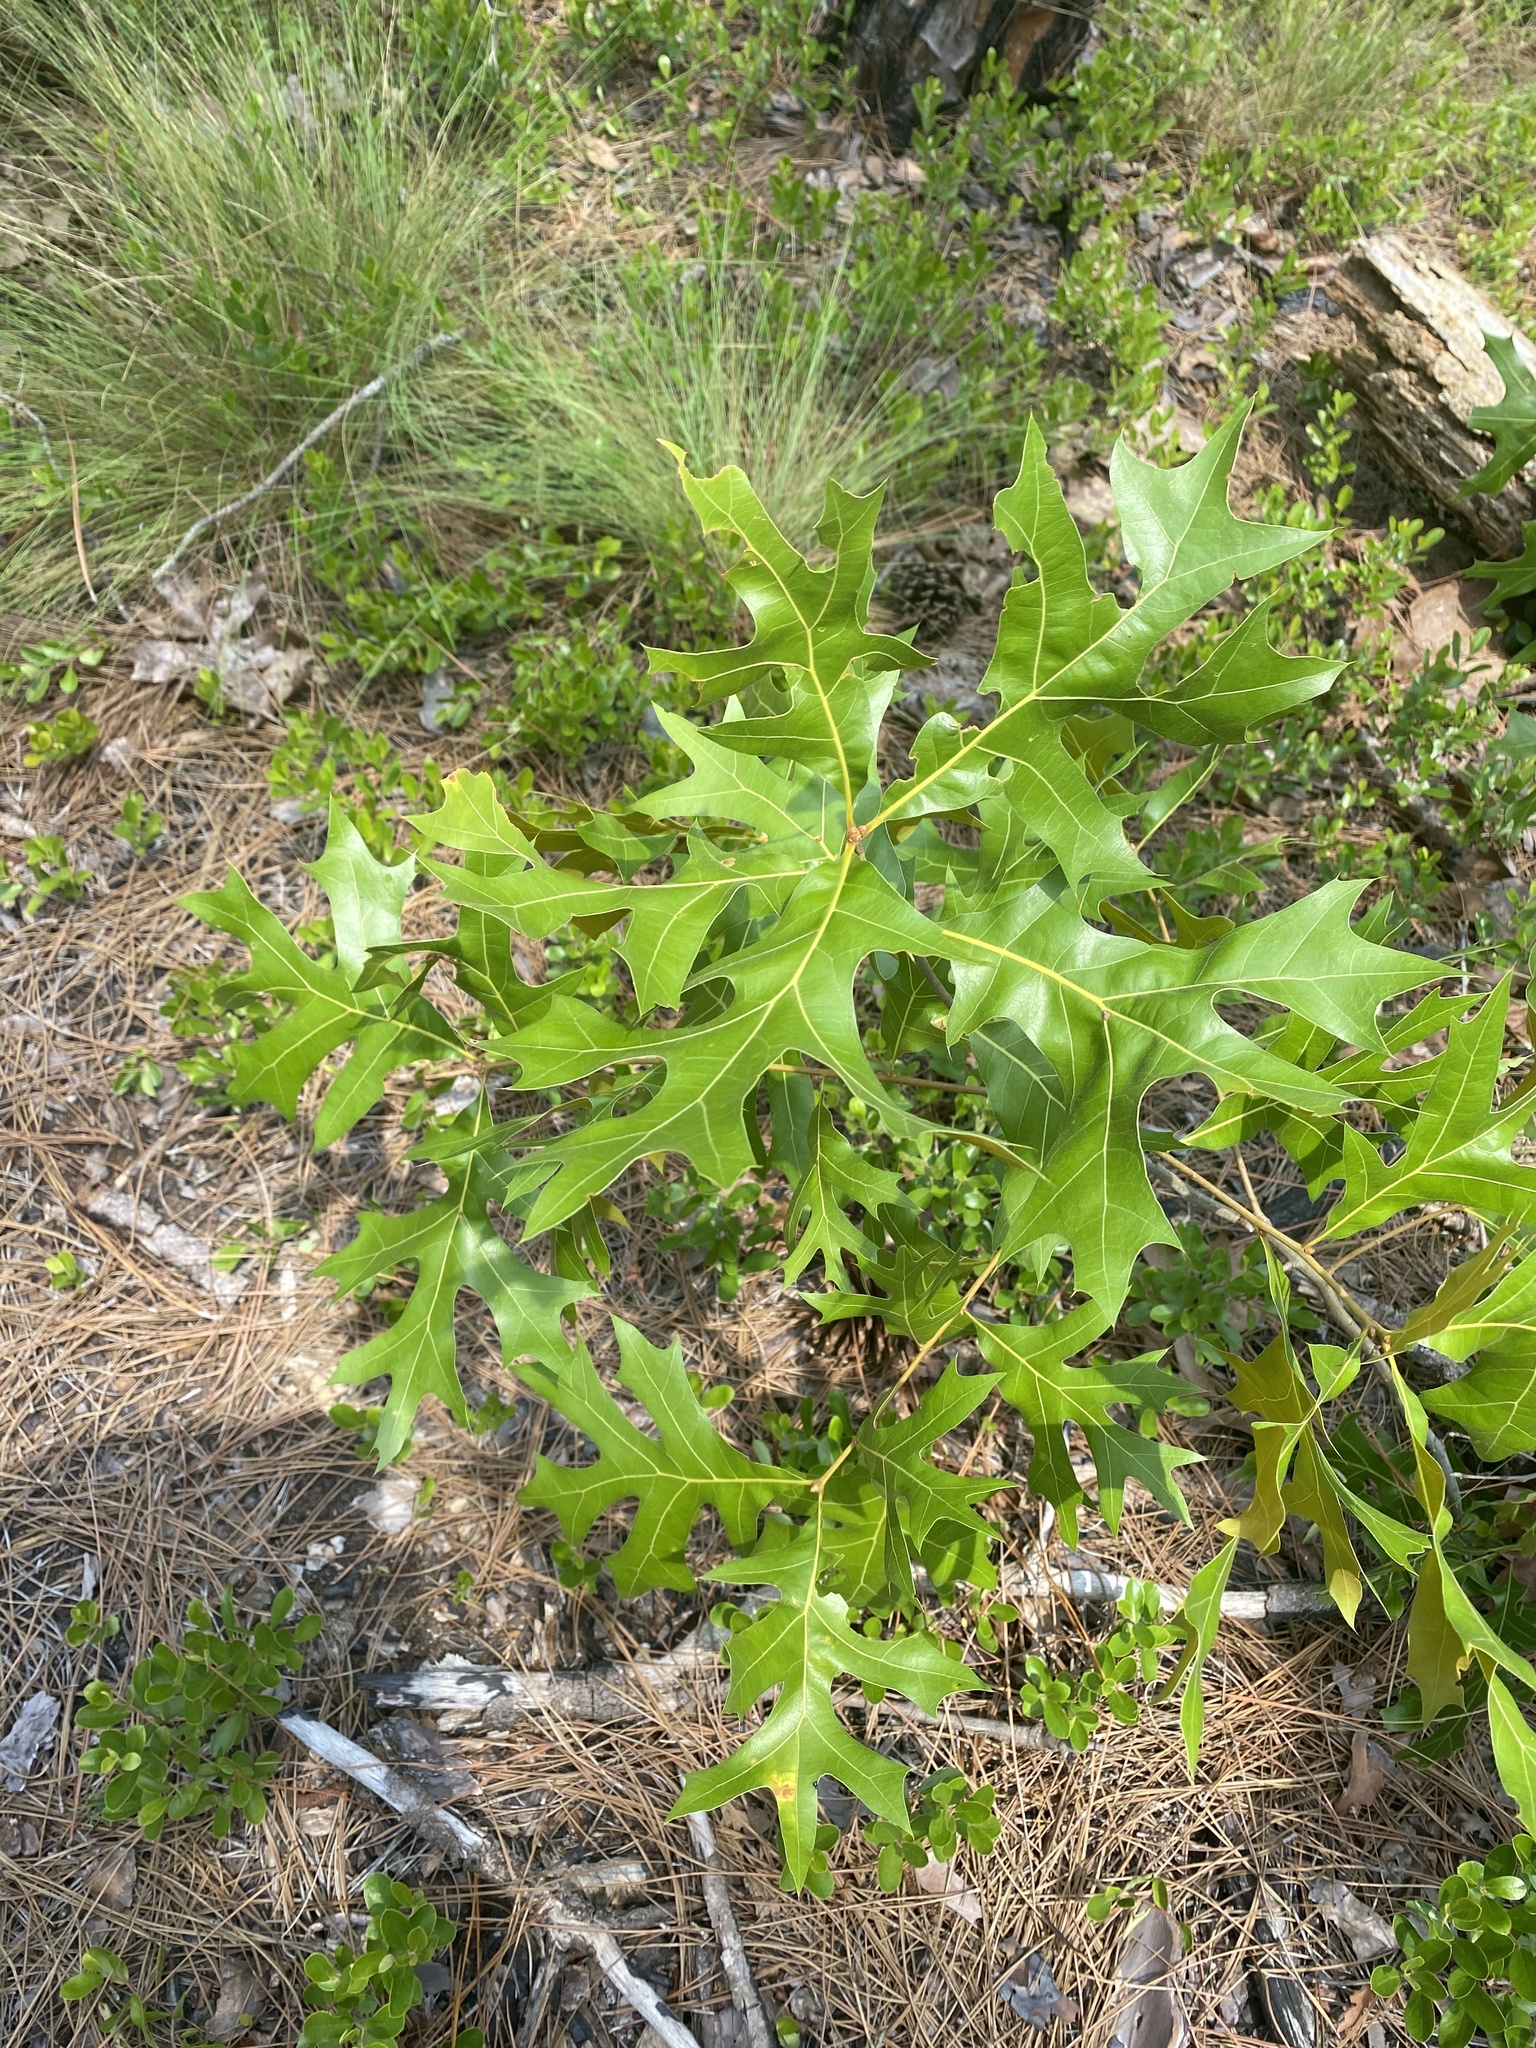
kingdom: Plantae
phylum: Tracheophyta
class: Magnoliopsida
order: Fagales
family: Fagaceae
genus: Quercus
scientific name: Quercus laevis
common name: Turkey oak
